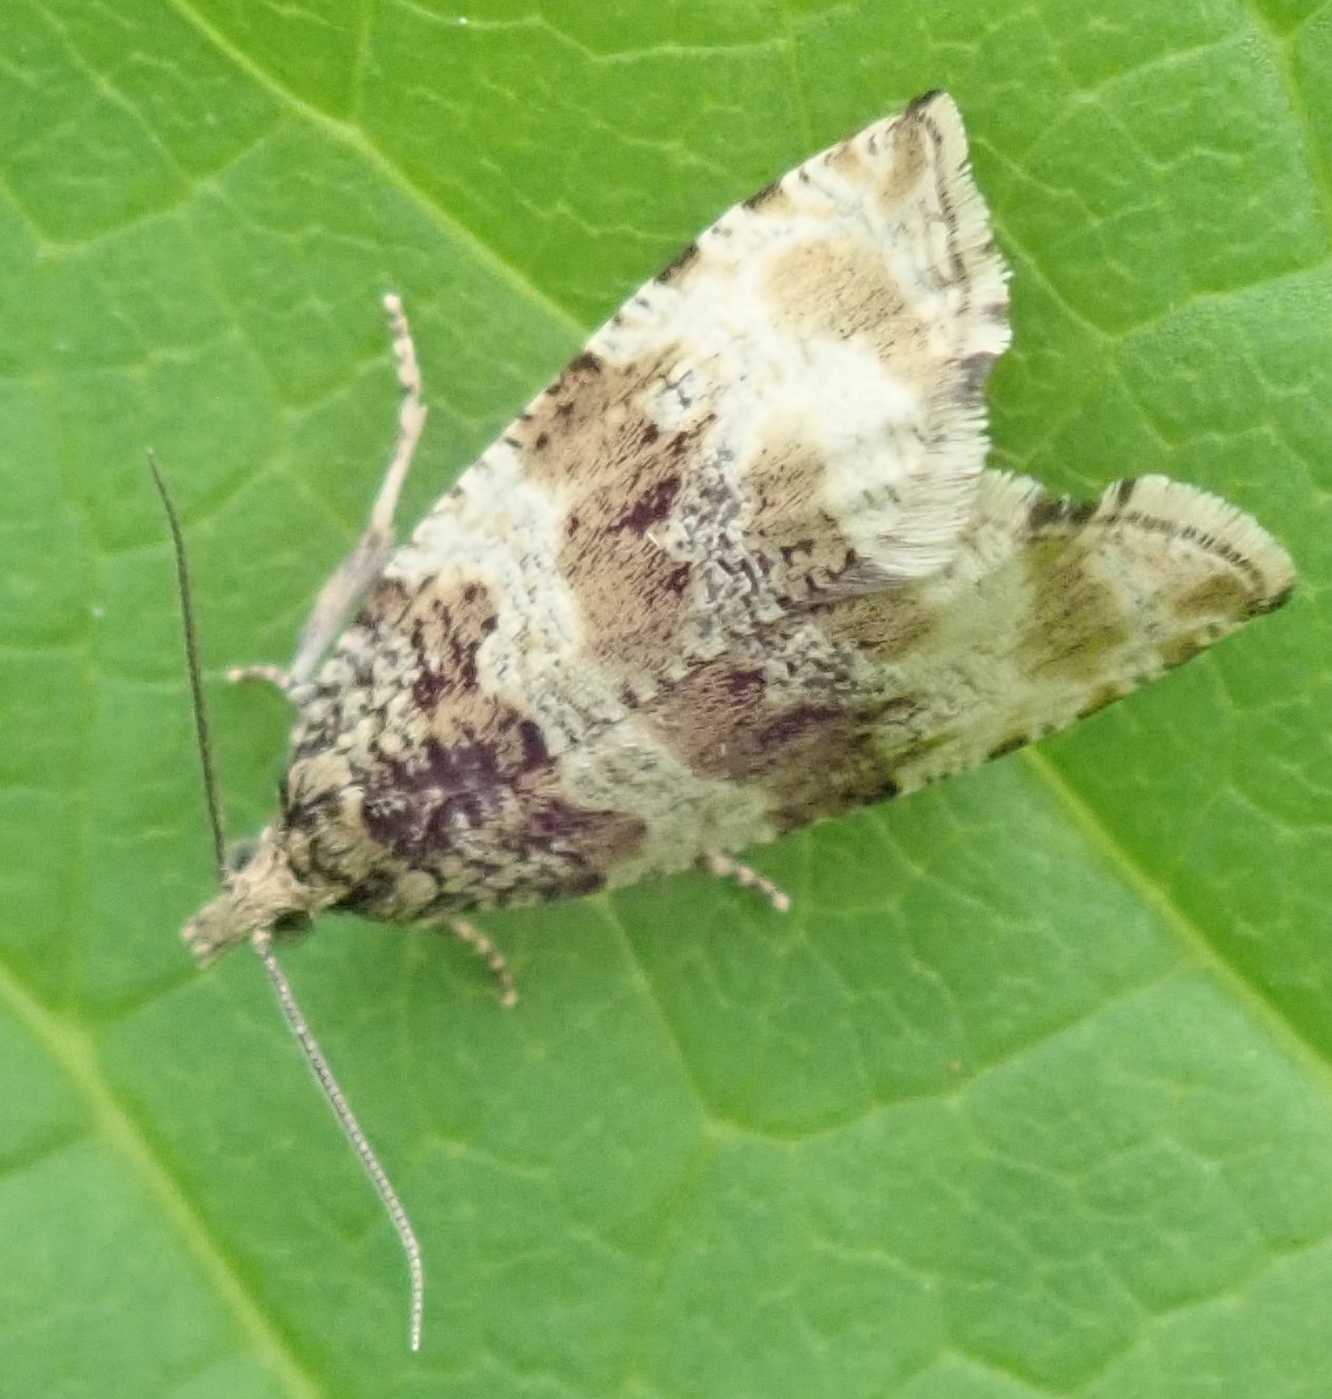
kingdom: Animalia
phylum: Arthropoda
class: Insecta
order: Lepidoptera
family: Tortricidae
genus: Orthotaenia
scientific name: Orthotaenia undulana
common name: Woodland marble
